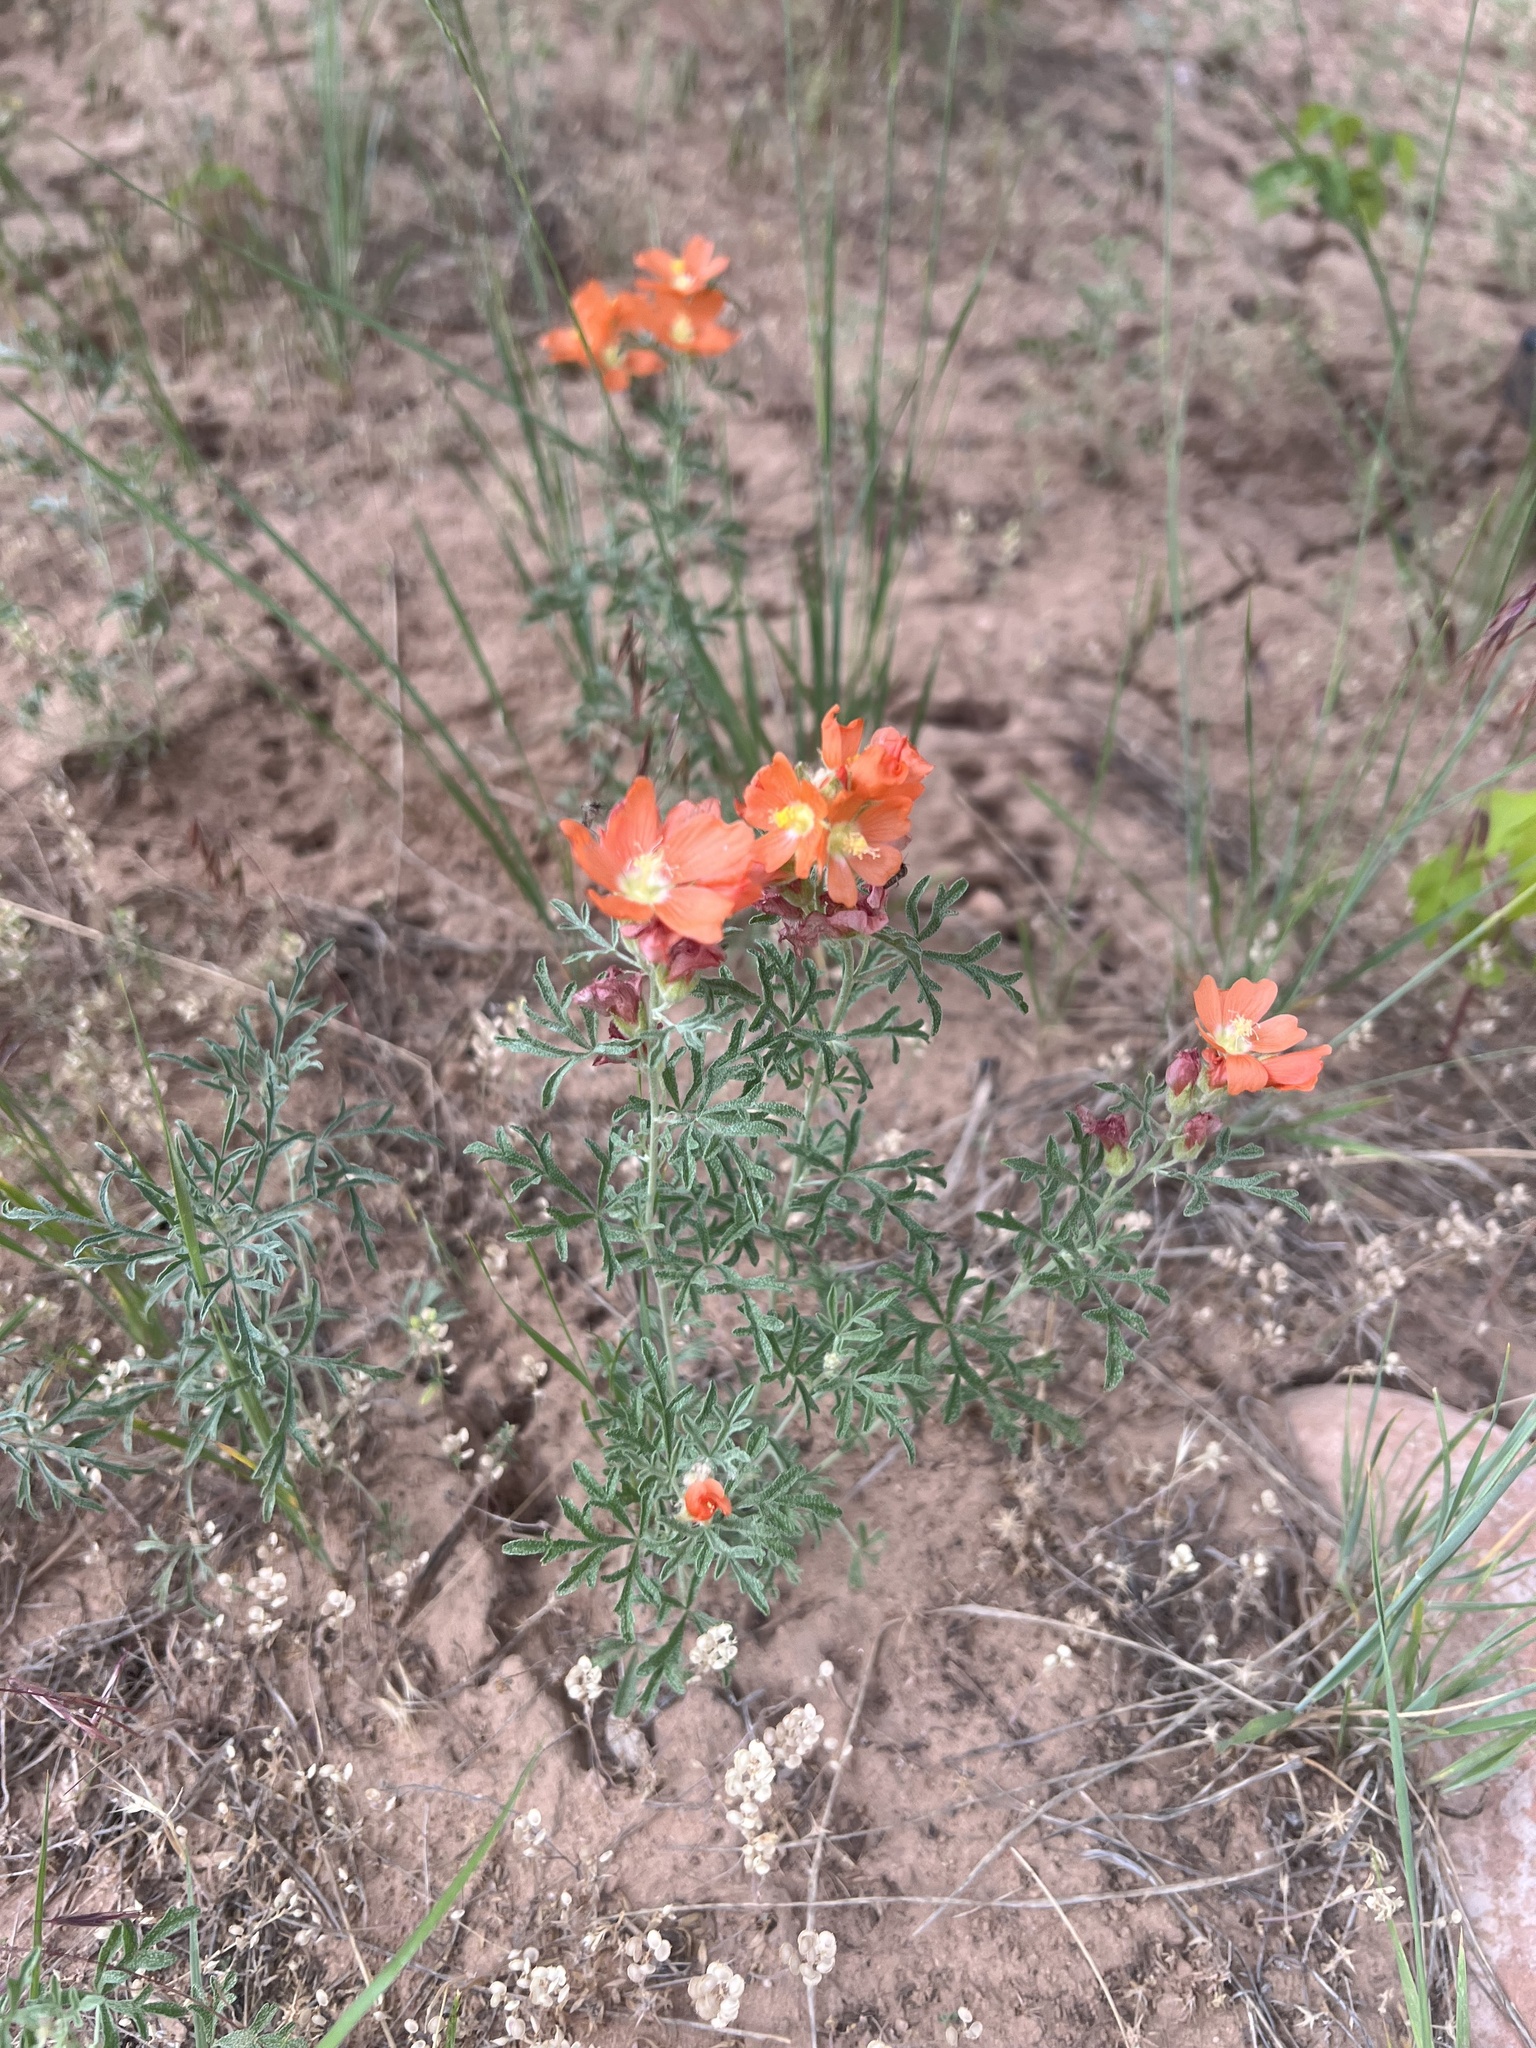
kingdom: Plantae
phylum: Tracheophyta
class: Magnoliopsida
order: Malvales
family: Malvaceae
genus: Sphaeralcea
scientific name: Sphaeralcea coccinea
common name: Moss-rose
